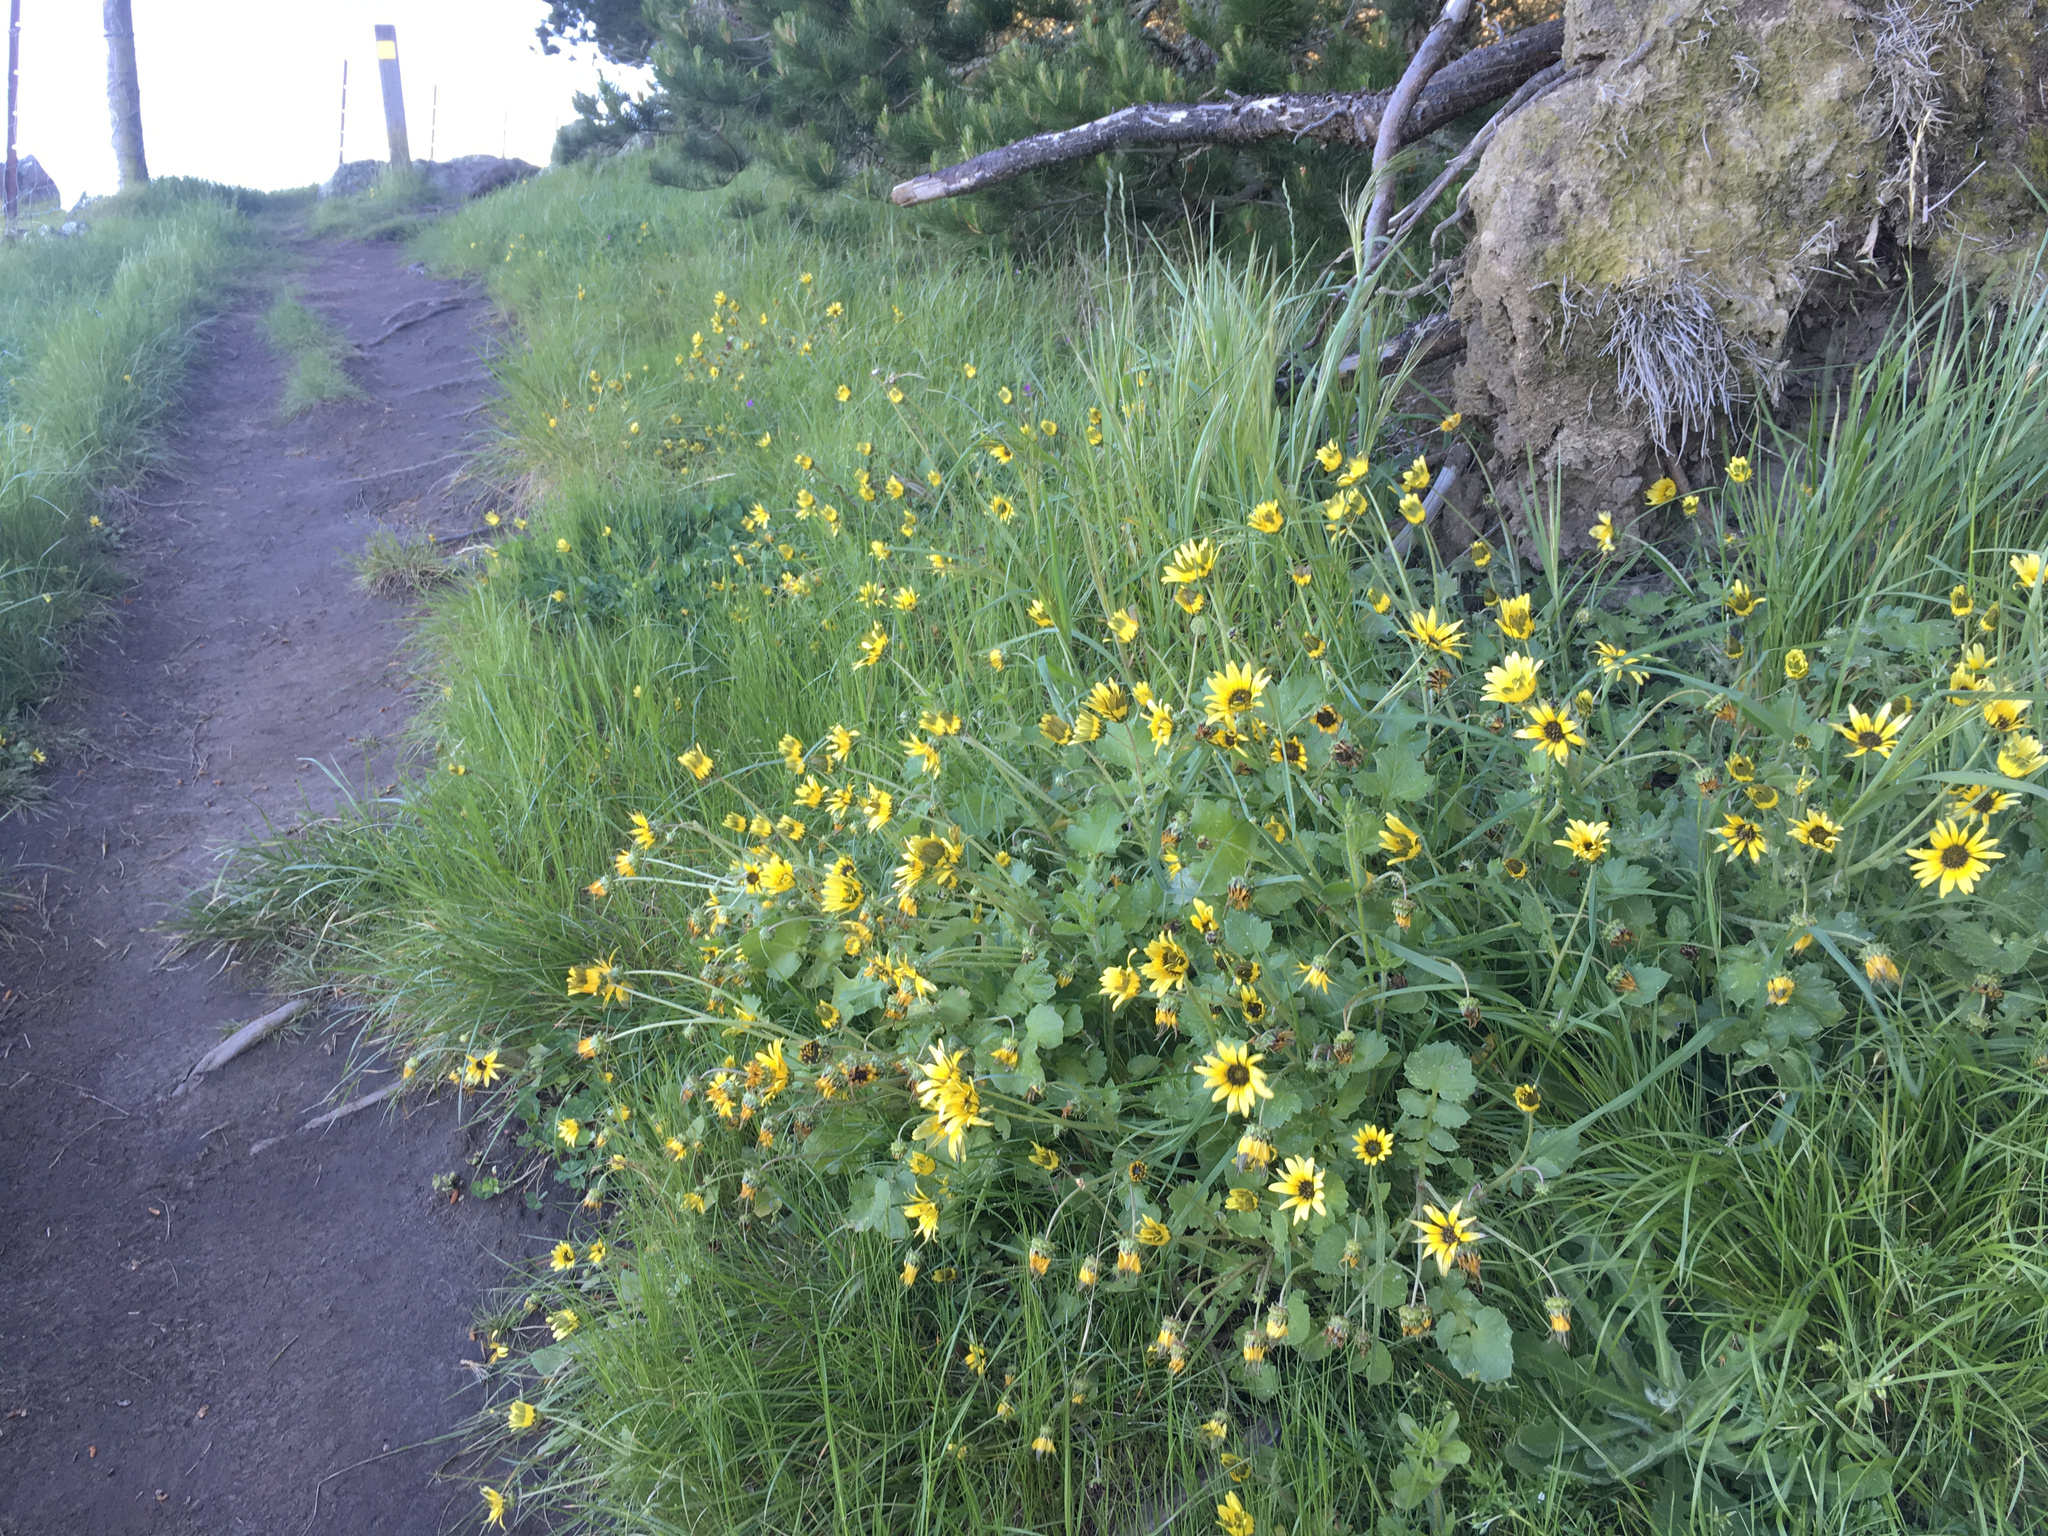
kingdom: Plantae
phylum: Tracheophyta
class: Magnoliopsida
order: Asterales
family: Asteraceae
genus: Arctotheca
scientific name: Arctotheca calendula
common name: Capeweed
